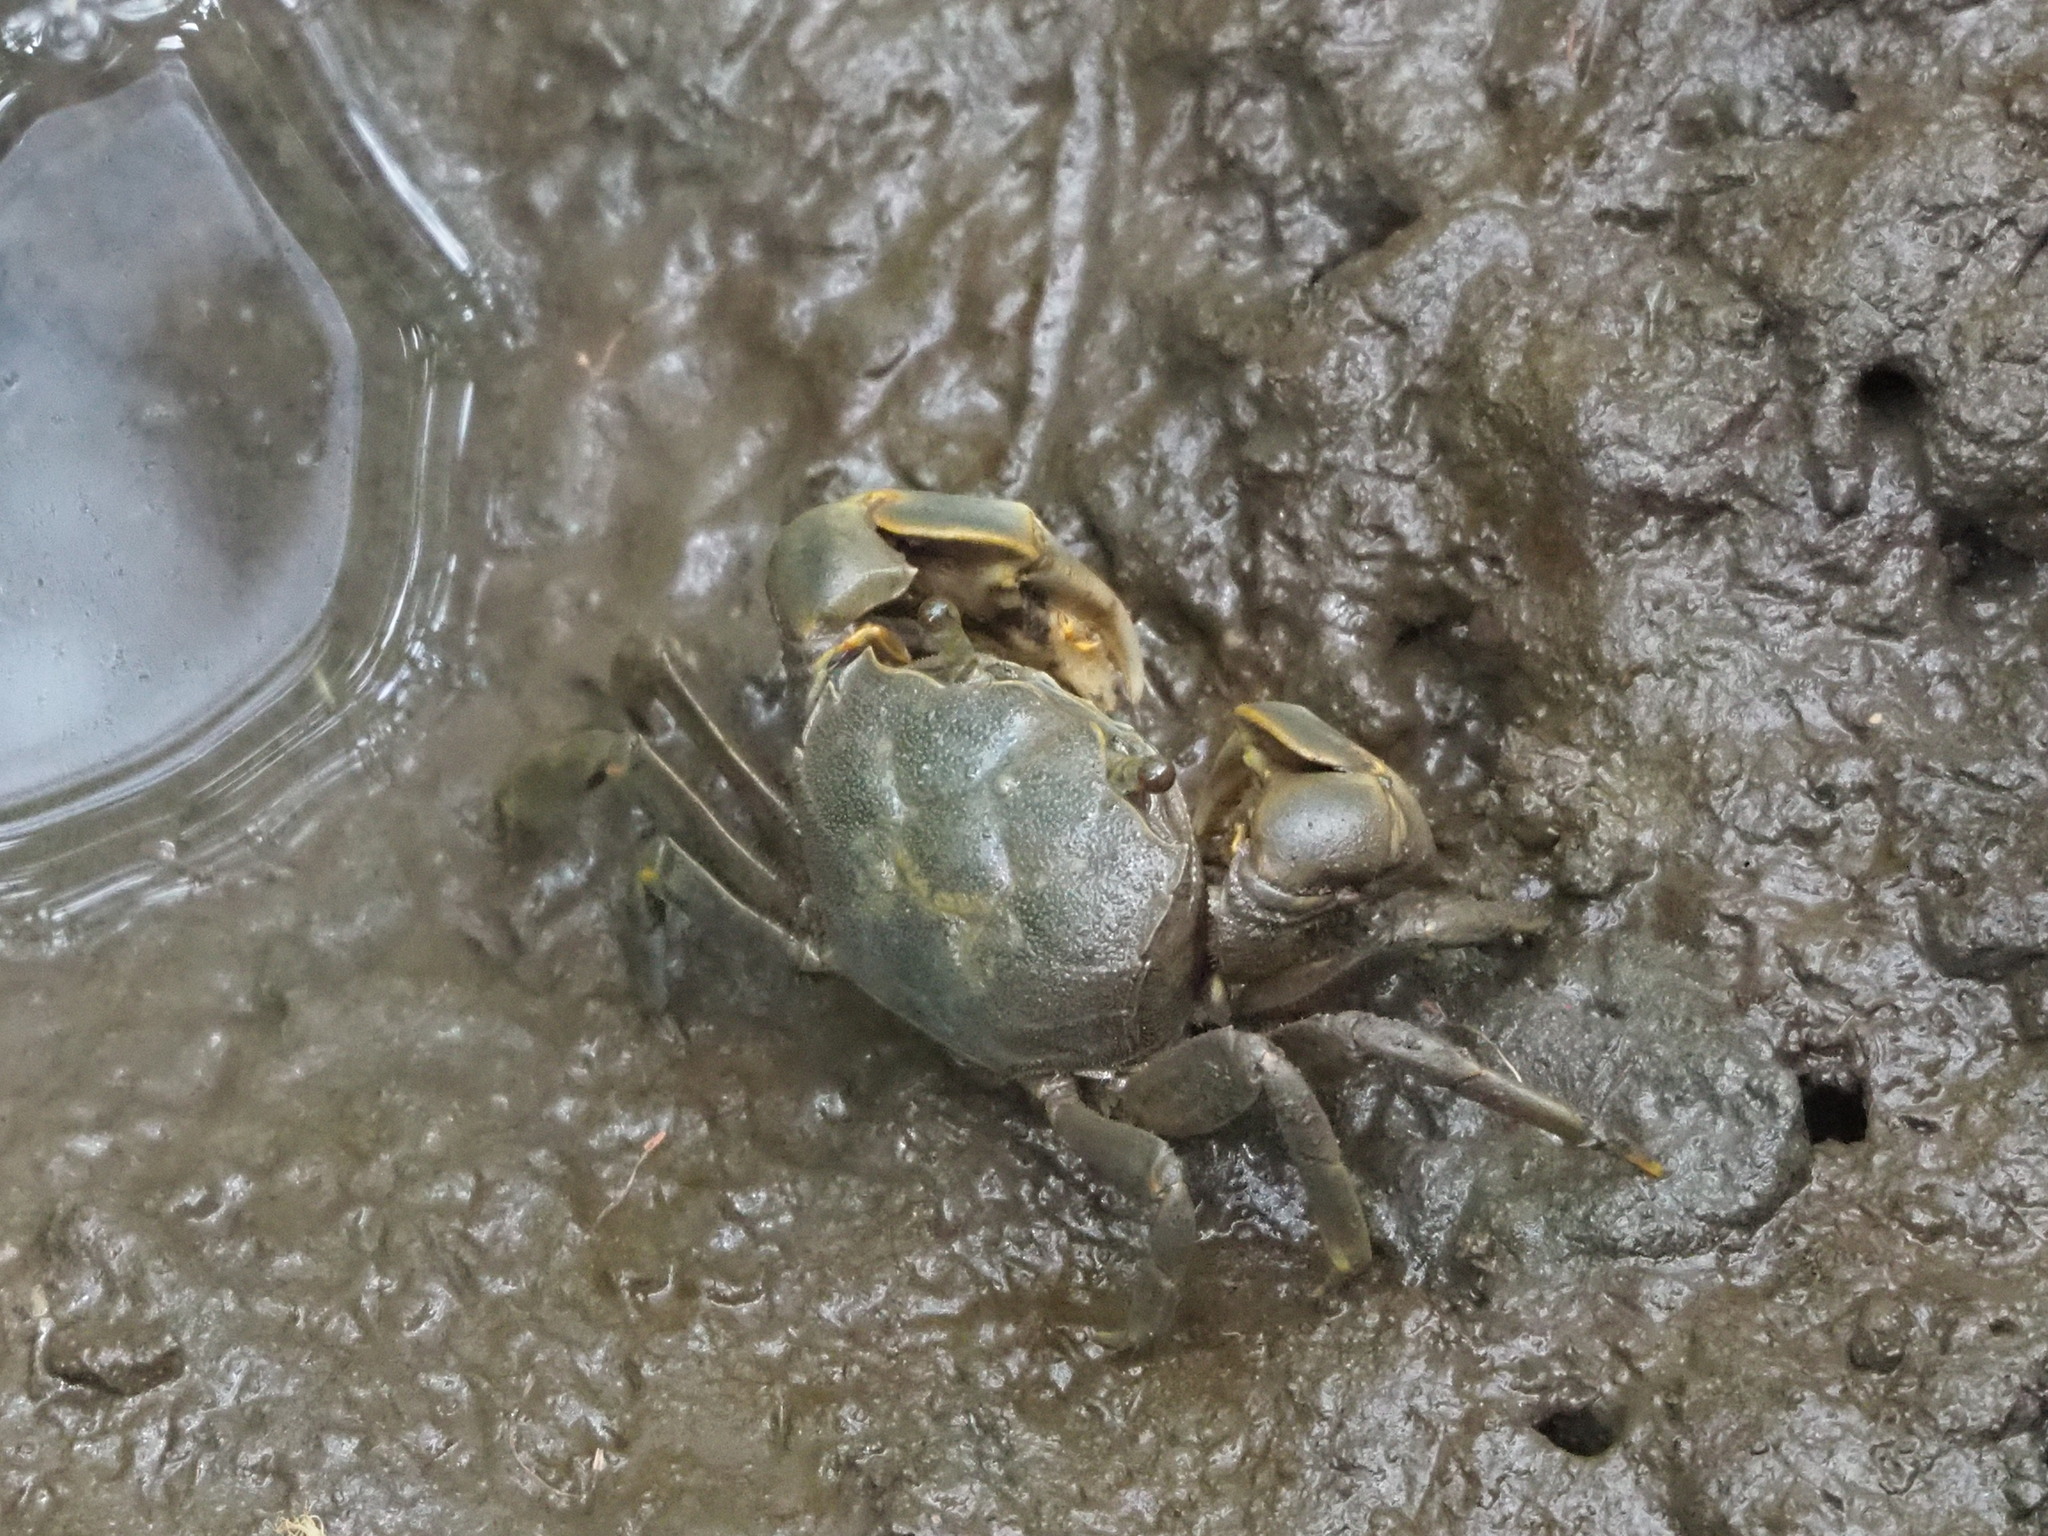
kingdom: Animalia
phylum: Arthropoda
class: Malacostraca
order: Decapoda
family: Varunidae
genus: Helice
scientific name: Helice formosensis
